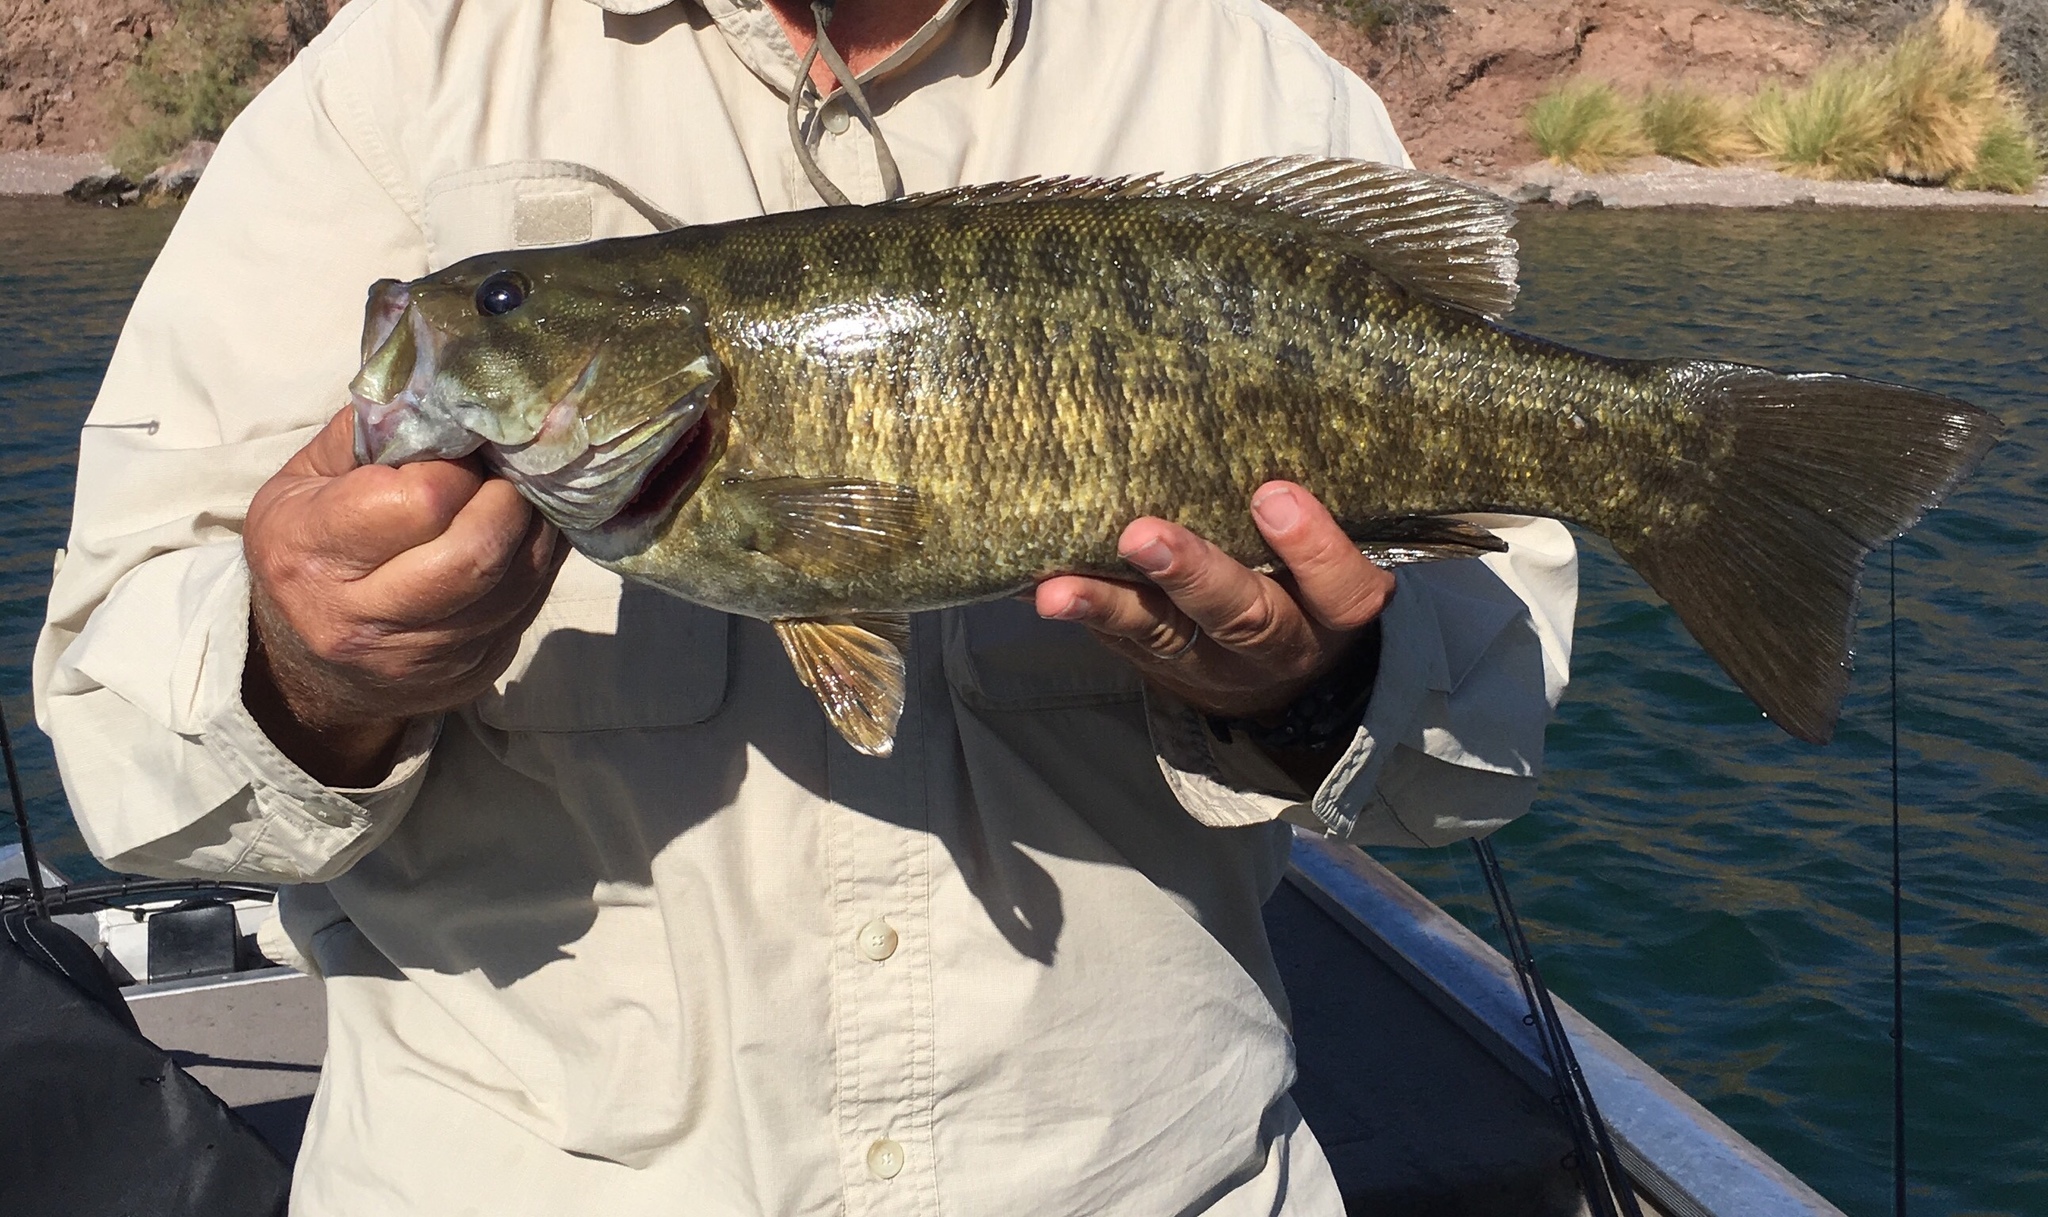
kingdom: Animalia
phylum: Chordata
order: Perciformes
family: Centrarchidae
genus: Micropterus
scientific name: Micropterus dolomieu
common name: Smallmouth bass
